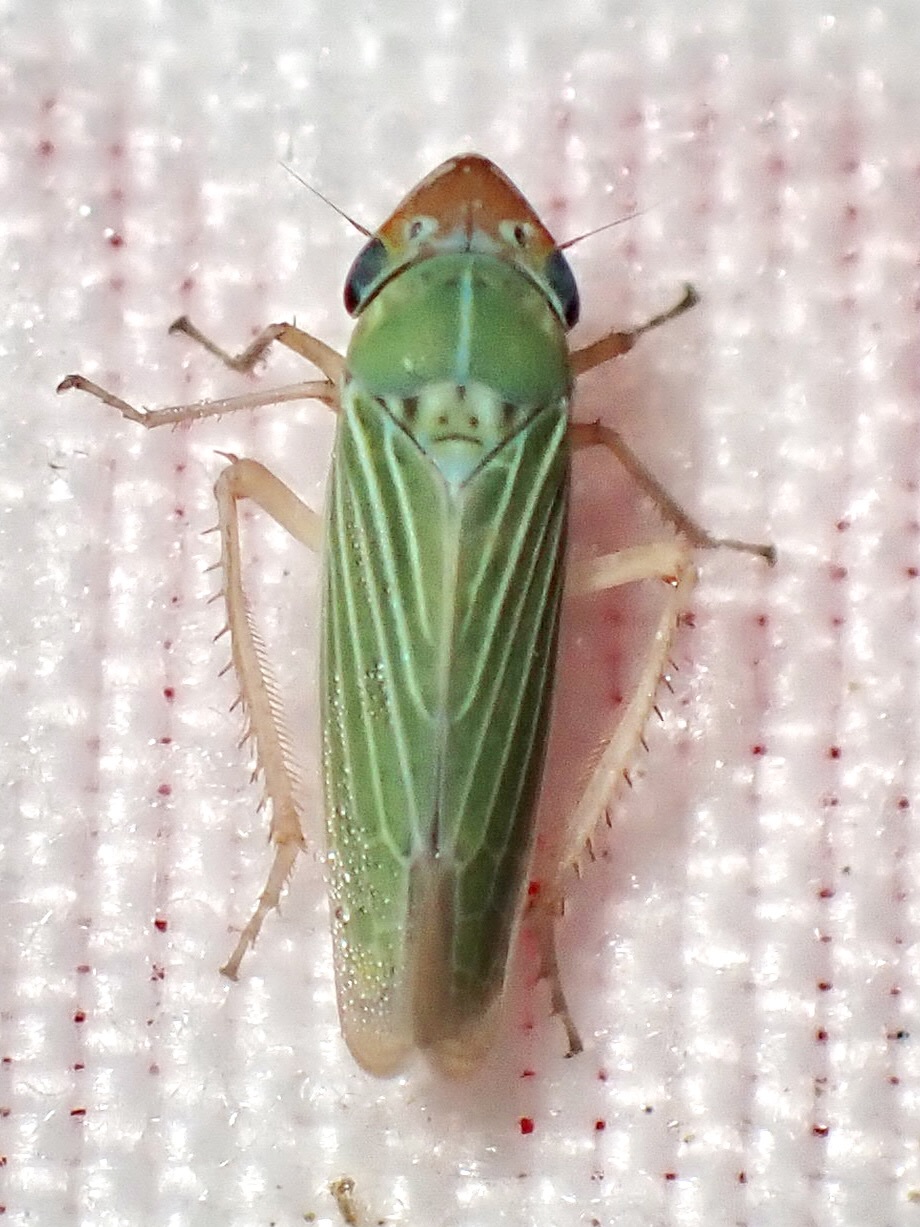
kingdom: Animalia
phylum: Arthropoda
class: Insecta
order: Hemiptera
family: Cicadellidae
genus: Xyphon
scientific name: Xyphon nudum
